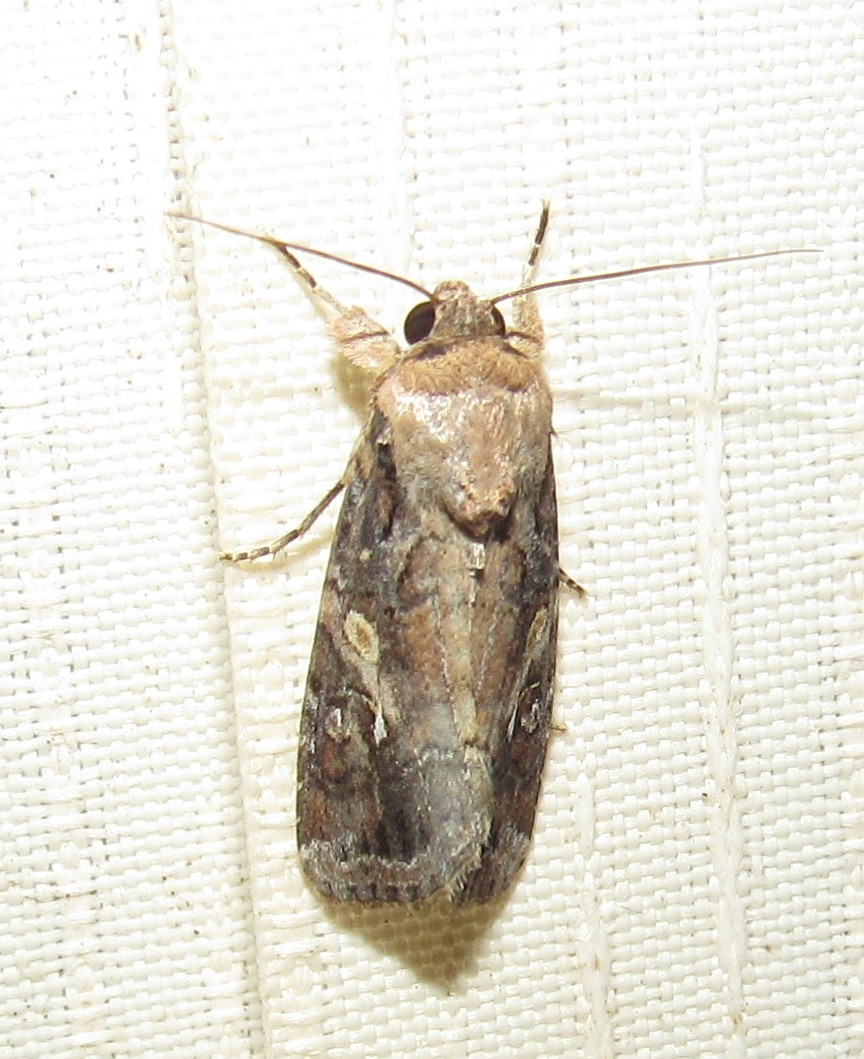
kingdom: Animalia
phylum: Arthropoda
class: Insecta
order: Lepidoptera
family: Noctuidae
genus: Spodoptera
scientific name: Spodoptera frugiperda
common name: Fall armyworm
